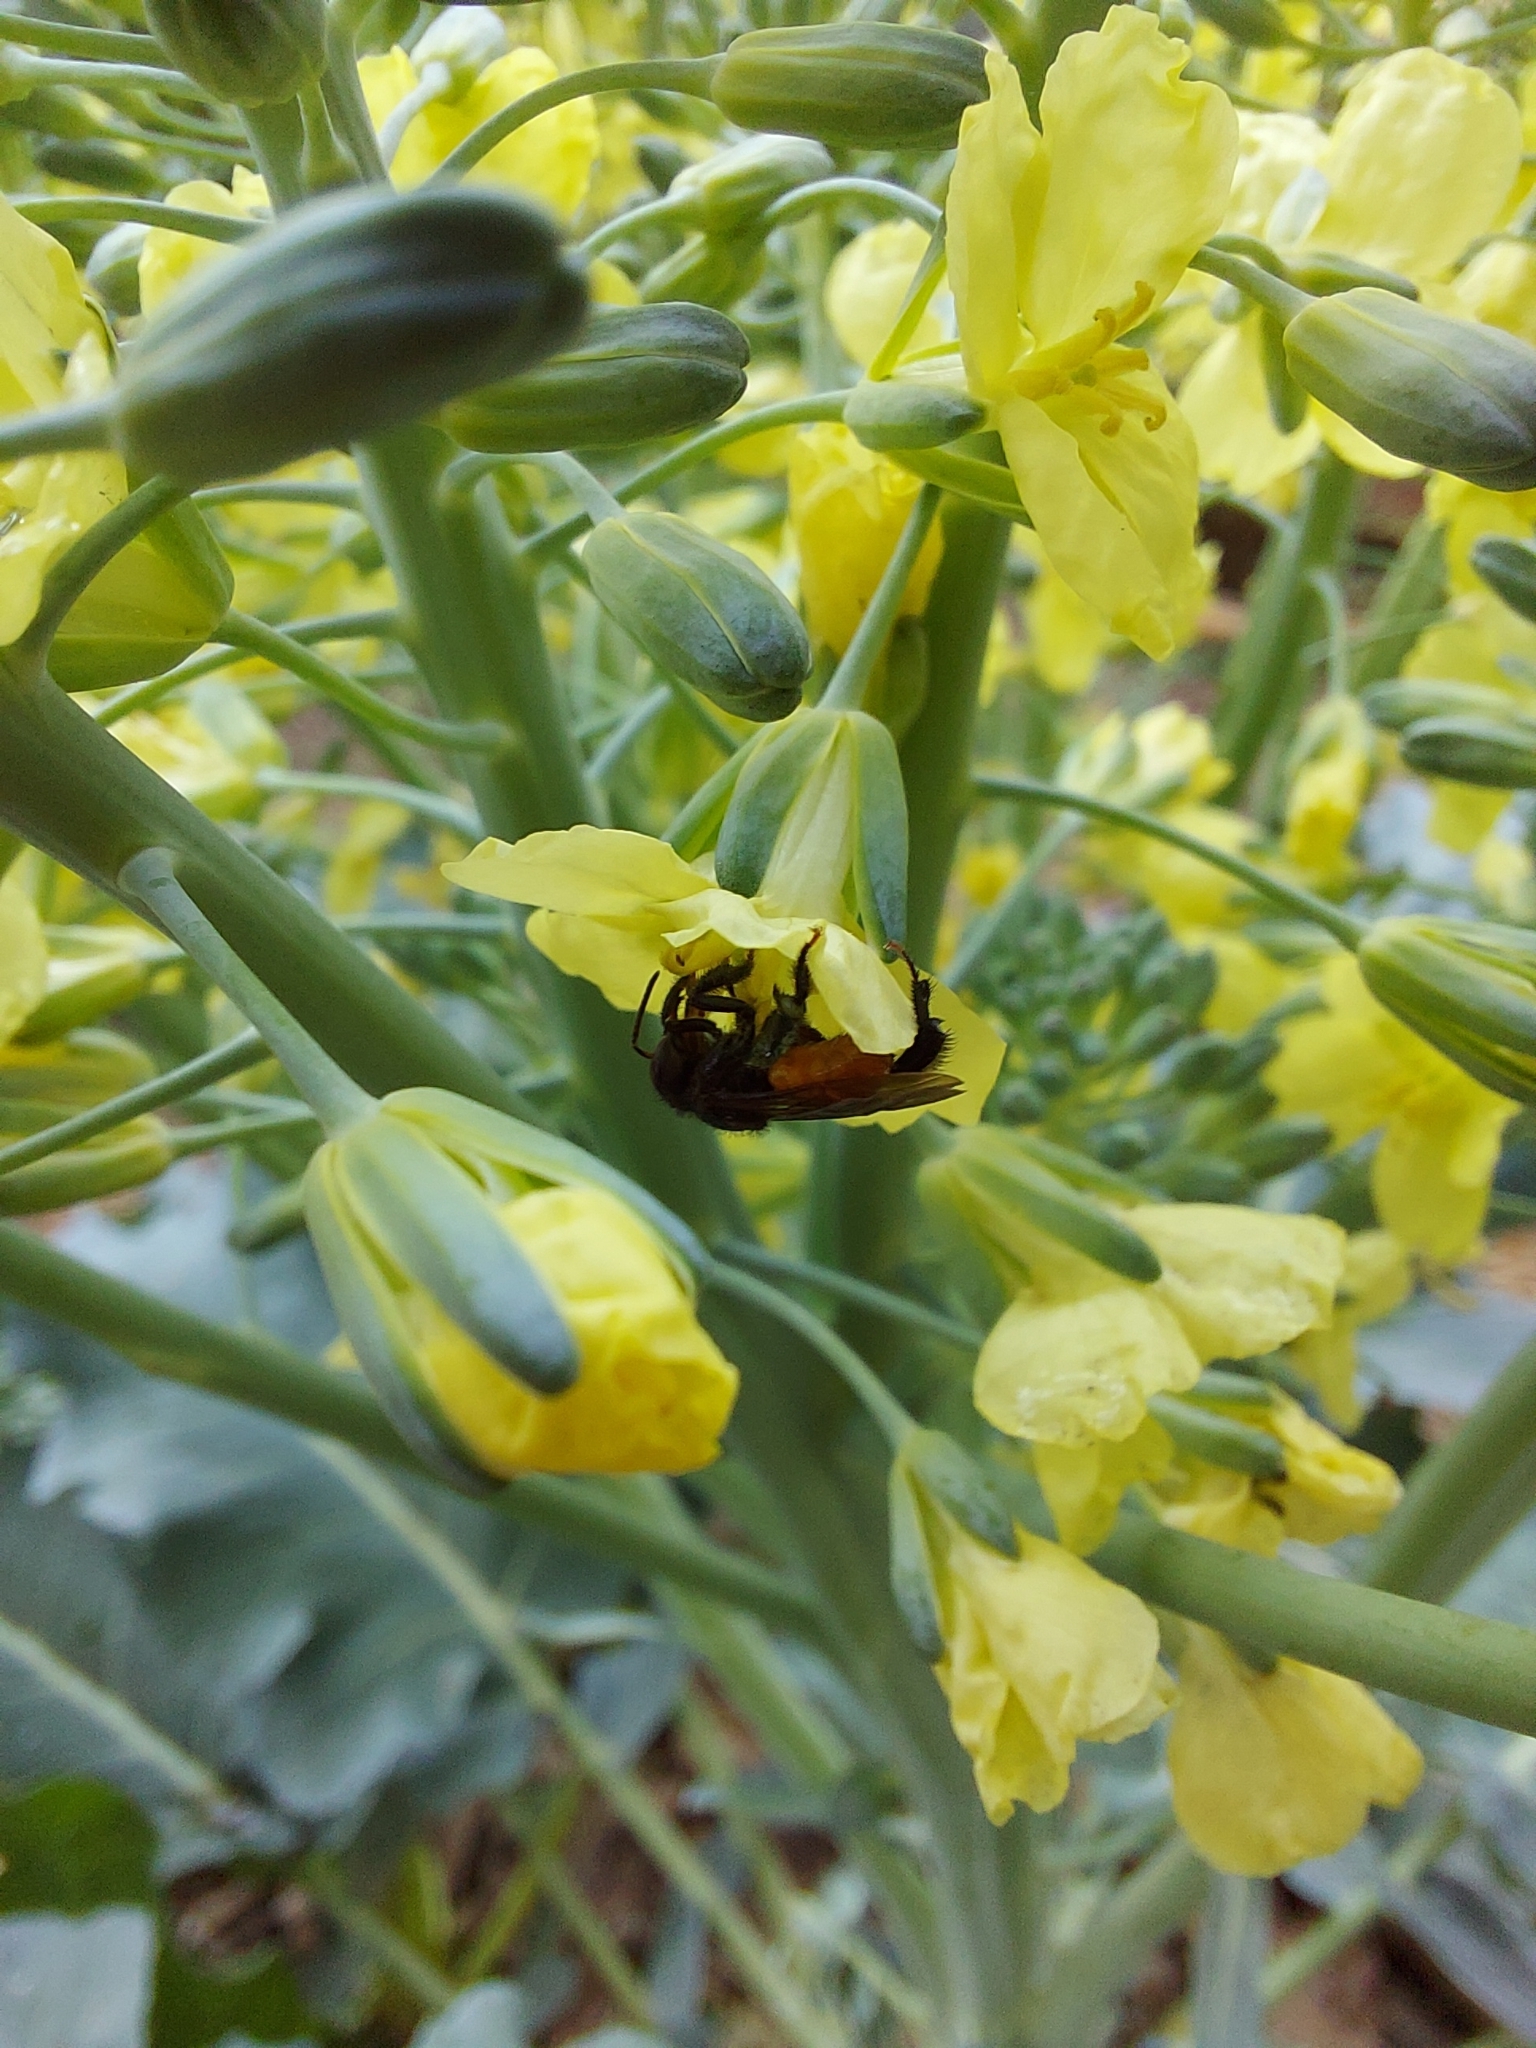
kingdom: Animalia
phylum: Arthropoda
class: Insecta
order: Hymenoptera
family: Apidae
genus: Trigona
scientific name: Trigona fulviventris
